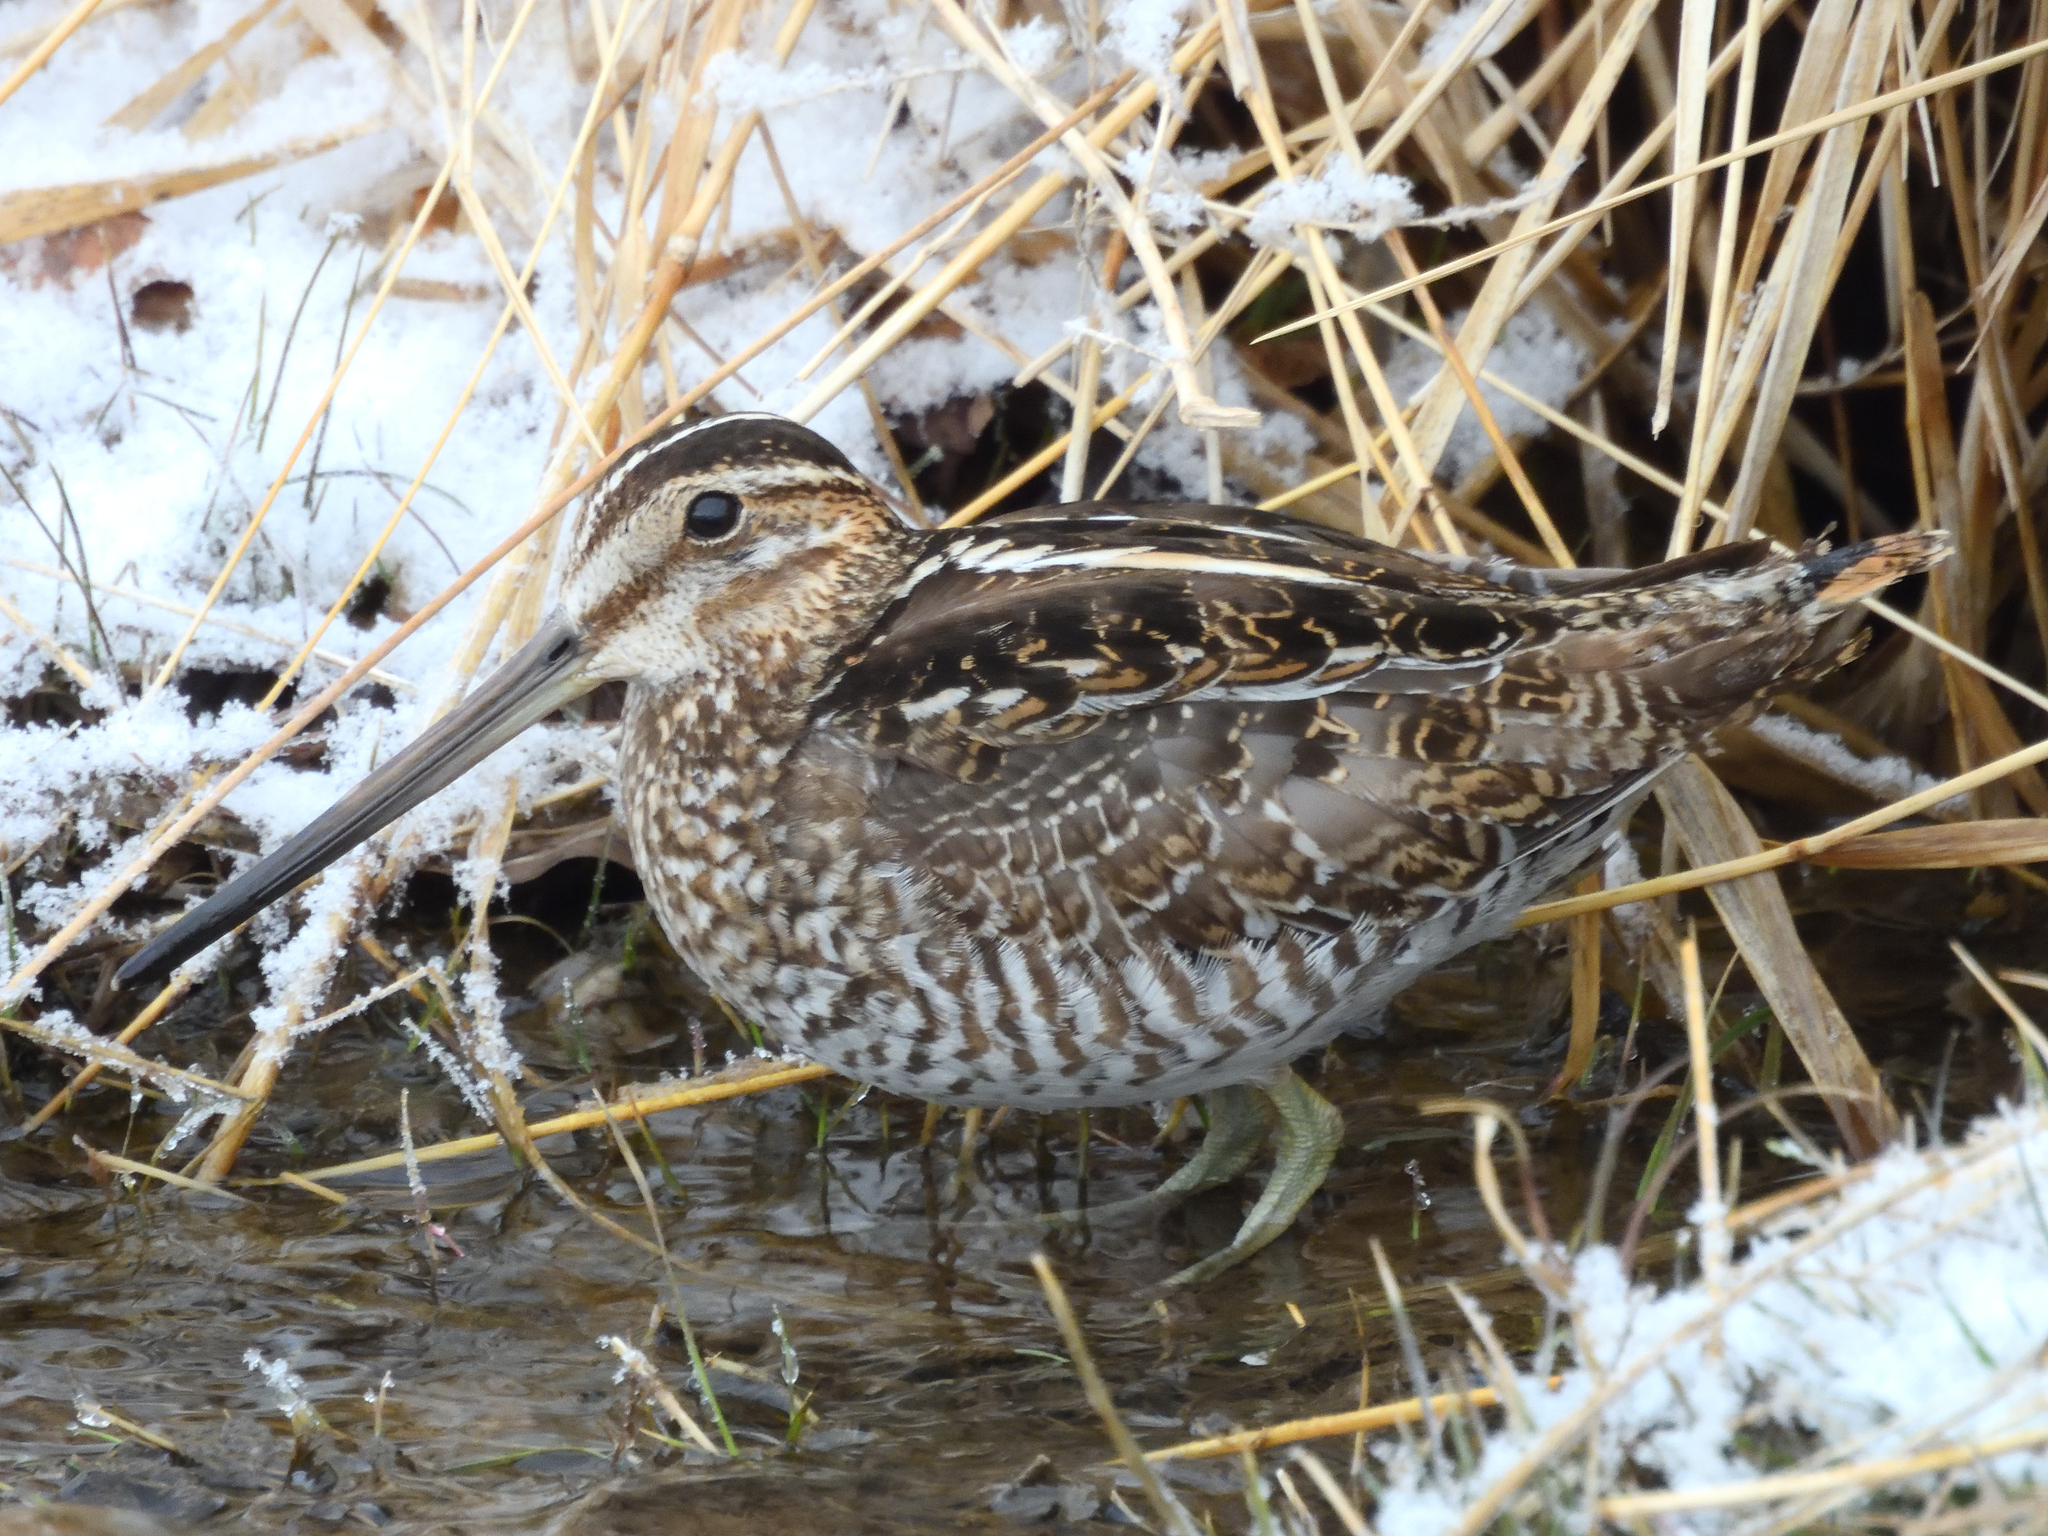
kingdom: Animalia
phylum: Chordata
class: Aves
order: Charadriiformes
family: Scolopacidae
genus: Gallinago
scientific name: Gallinago delicata
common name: Wilson's snipe
